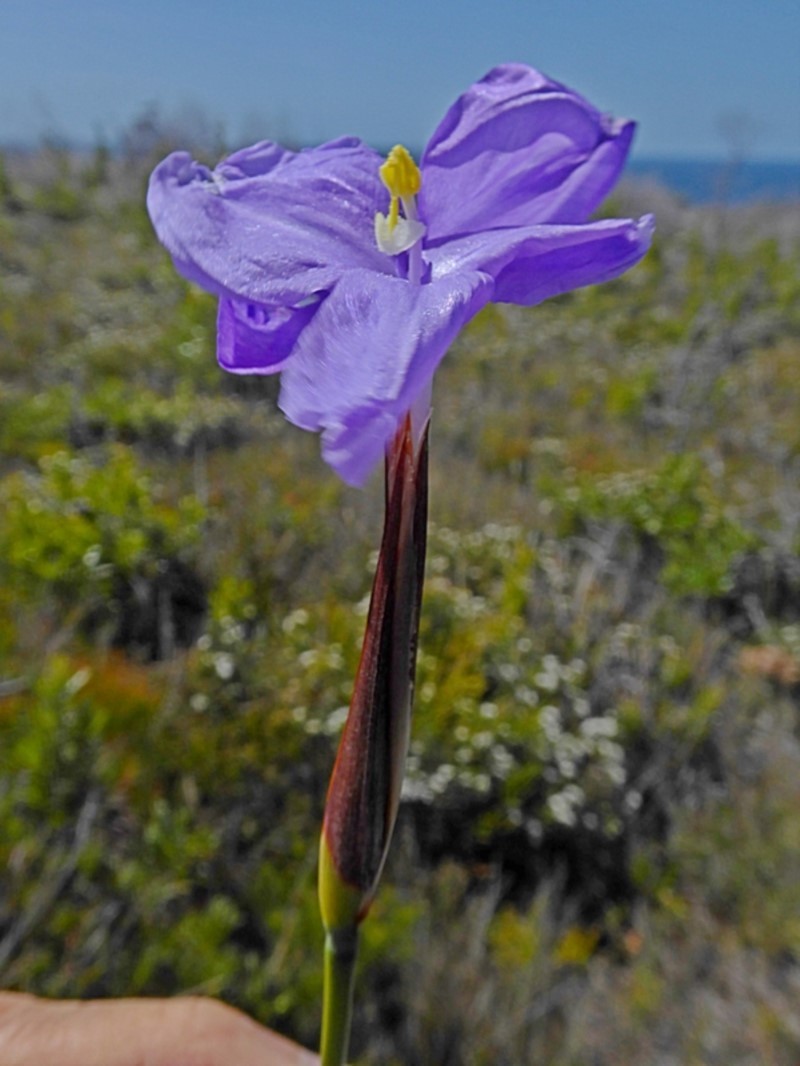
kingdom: Plantae
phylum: Tracheophyta
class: Liliopsida
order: Asparagales
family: Iridaceae
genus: Patersonia
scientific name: Patersonia glabrata
